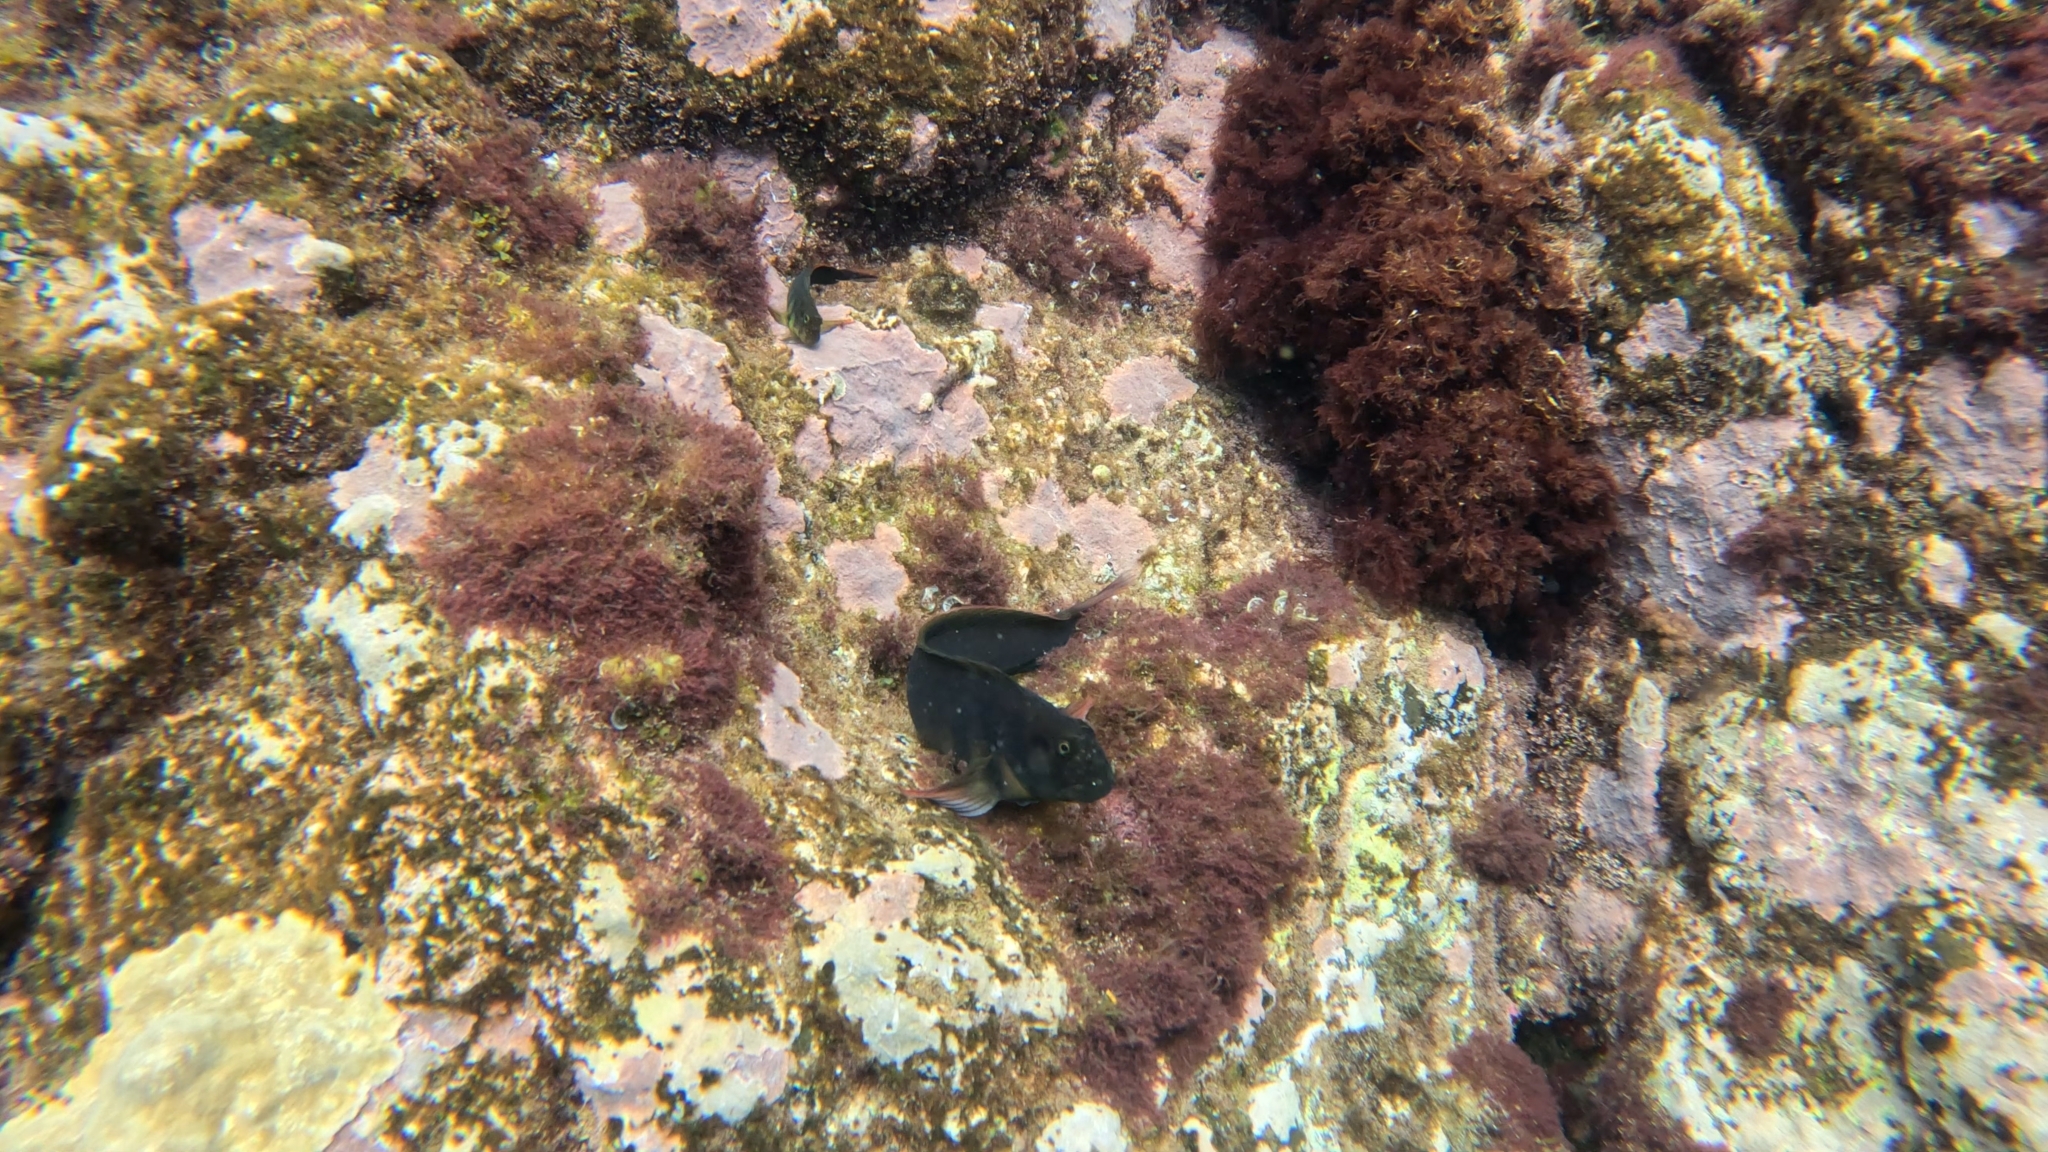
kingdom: Animalia
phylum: Chordata
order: Perciformes
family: Blenniidae
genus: Ophioblennius
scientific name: Ophioblennius atlanticus
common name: Redlip blenny
